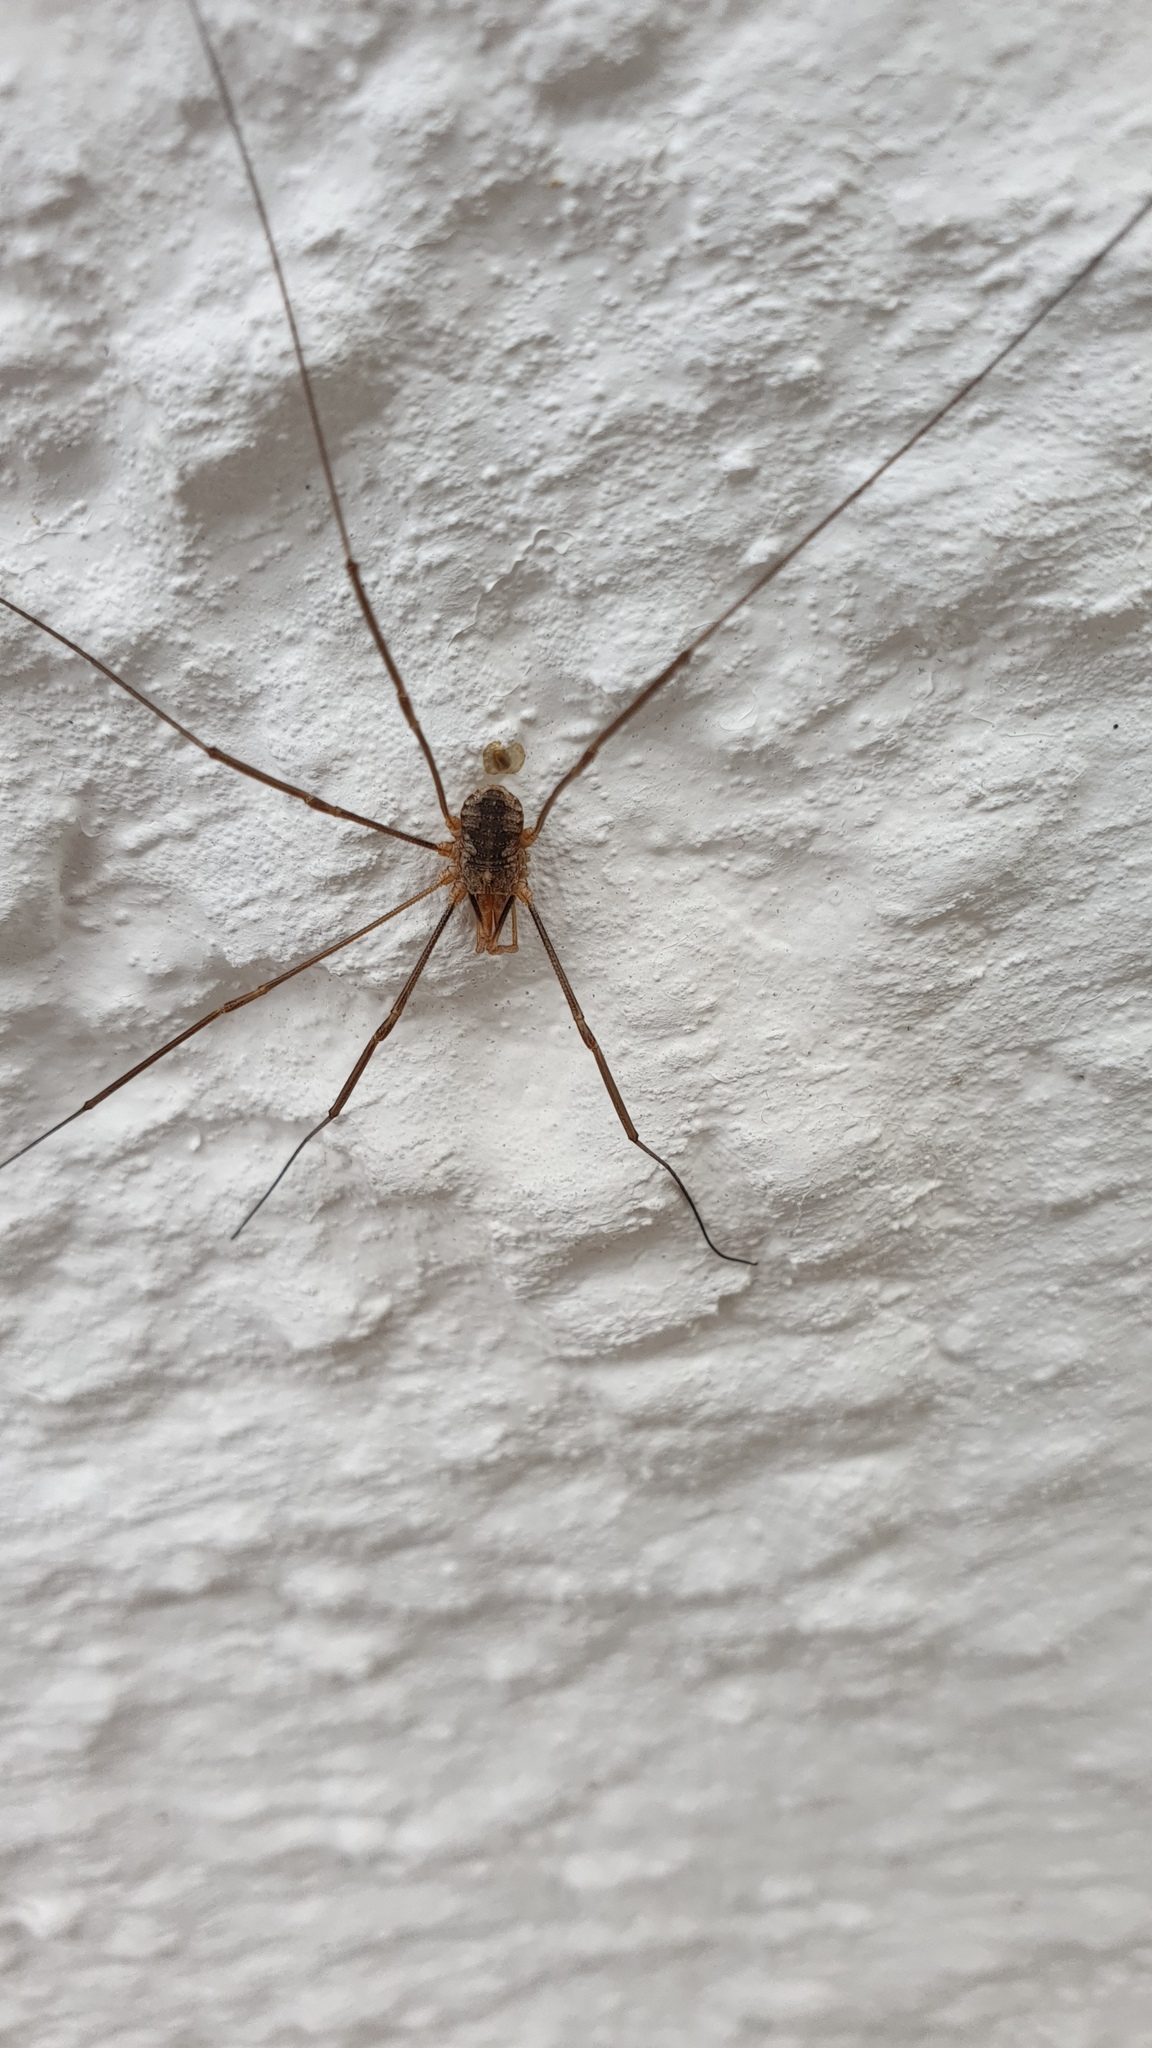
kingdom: Animalia
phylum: Arthropoda
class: Arachnida
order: Opiliones
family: Phalangiidae
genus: Phalangium
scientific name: Phalangium opilio
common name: Daddy longleg
